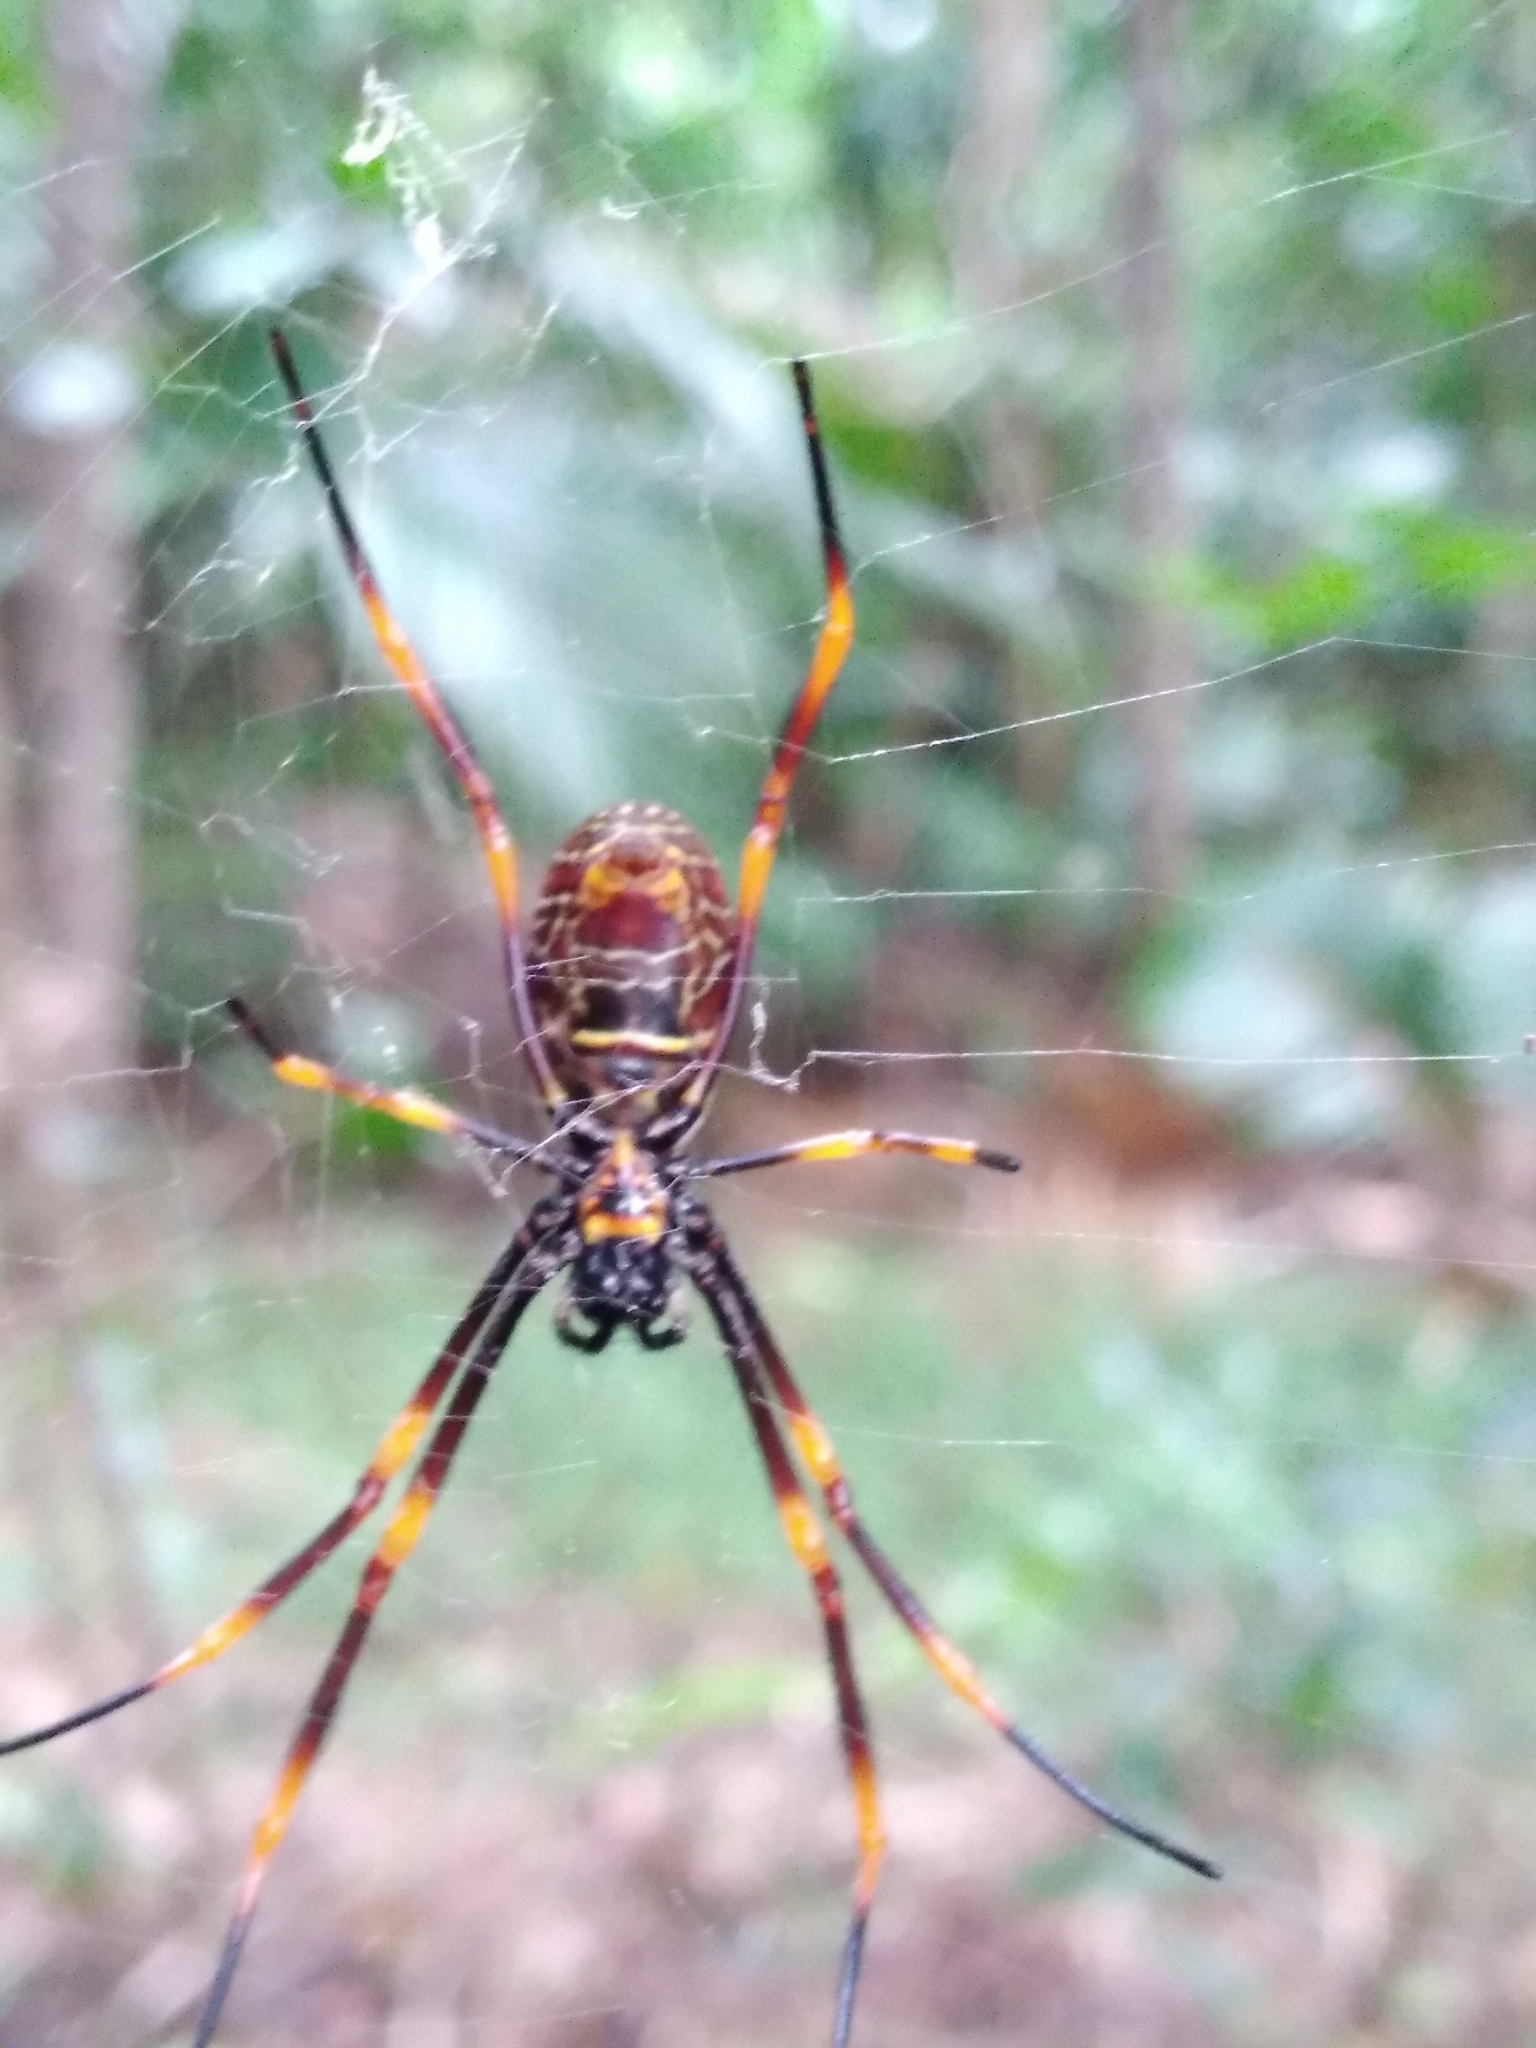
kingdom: Animalia
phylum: Arthropoda
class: Arachnida
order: Araneae
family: Araneidae
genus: Trichonephila
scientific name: Trichonephila plumipes
